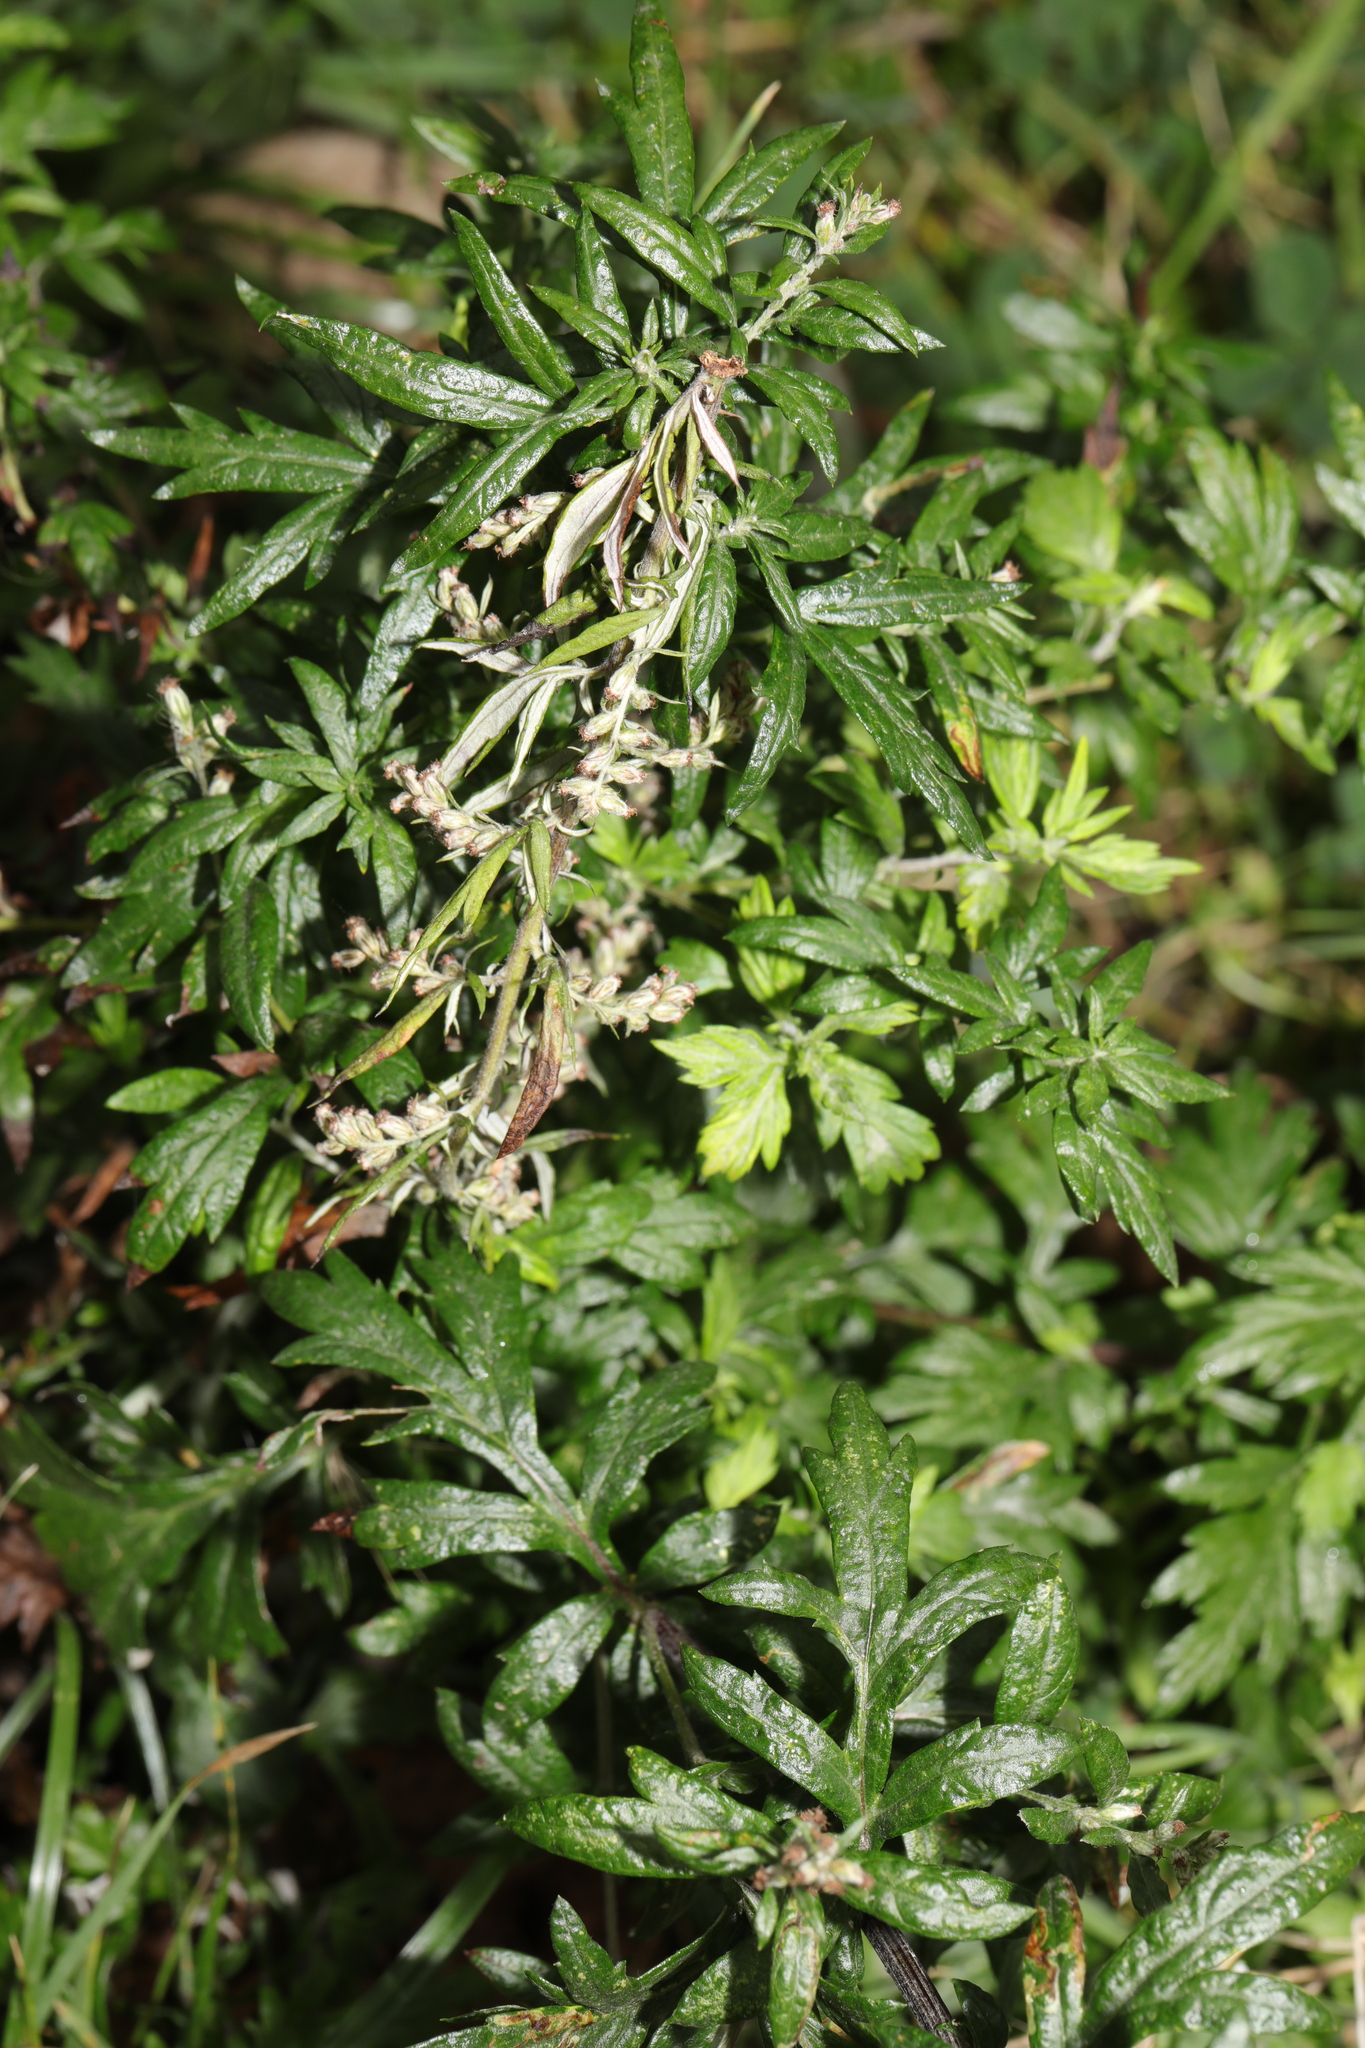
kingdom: Plantae
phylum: Tracheophyta
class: Magnoliopsida
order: Asterales
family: Asteraceae
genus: Artemisia
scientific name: Artemisia vulgaris
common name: Mugwort
